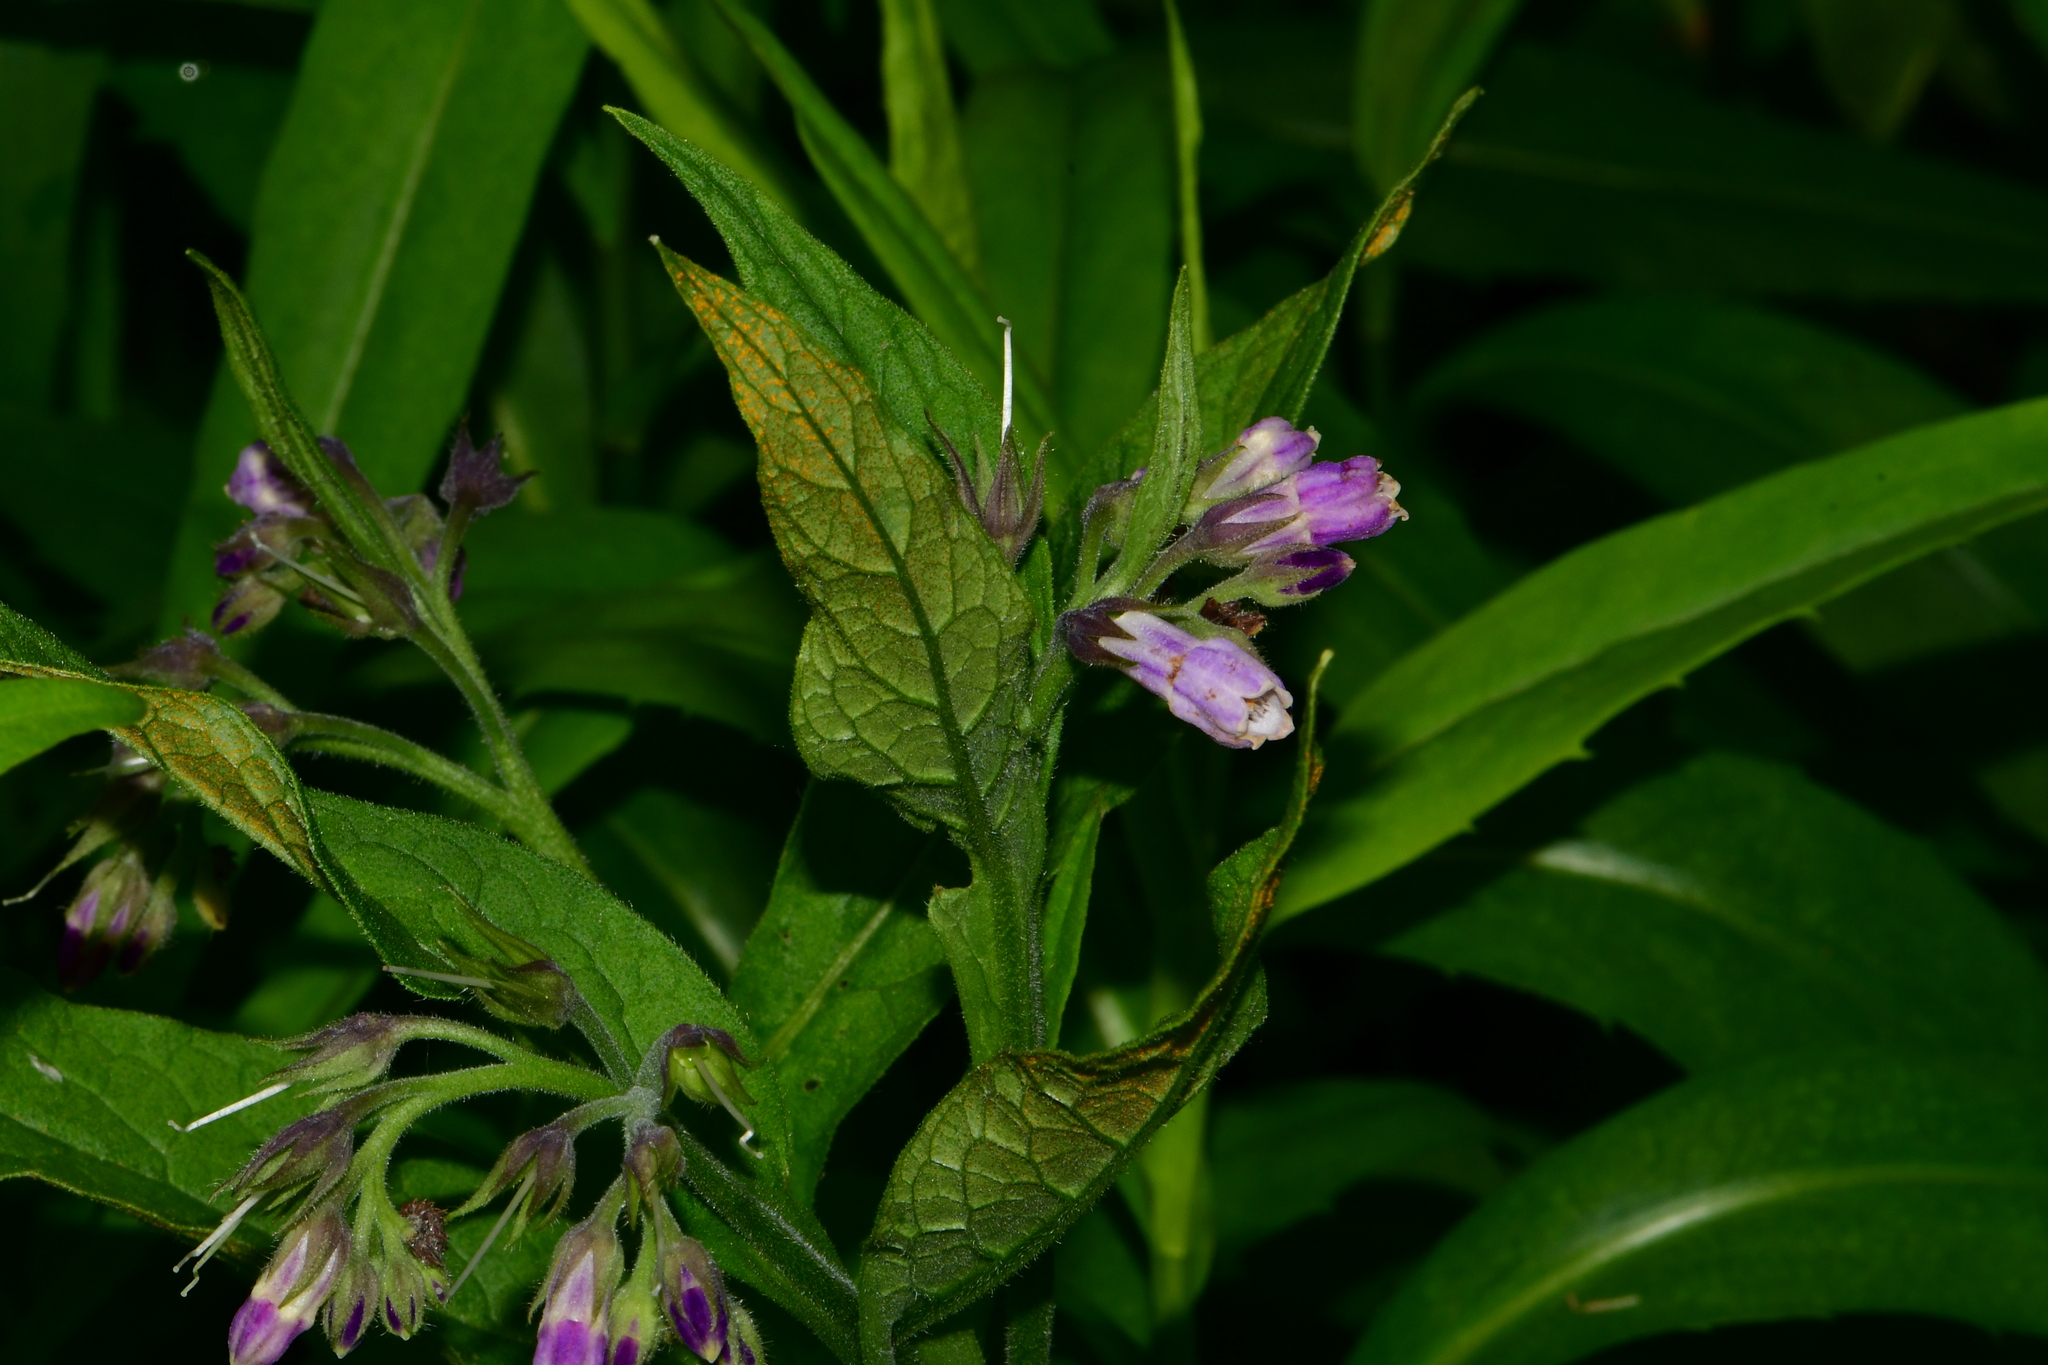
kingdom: Plantae
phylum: Tracheophyta
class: Magnoliopsida
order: Boraginales
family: Boraginaceae
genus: Symphytum
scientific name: Symphytum officinale
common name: Common comfrey
